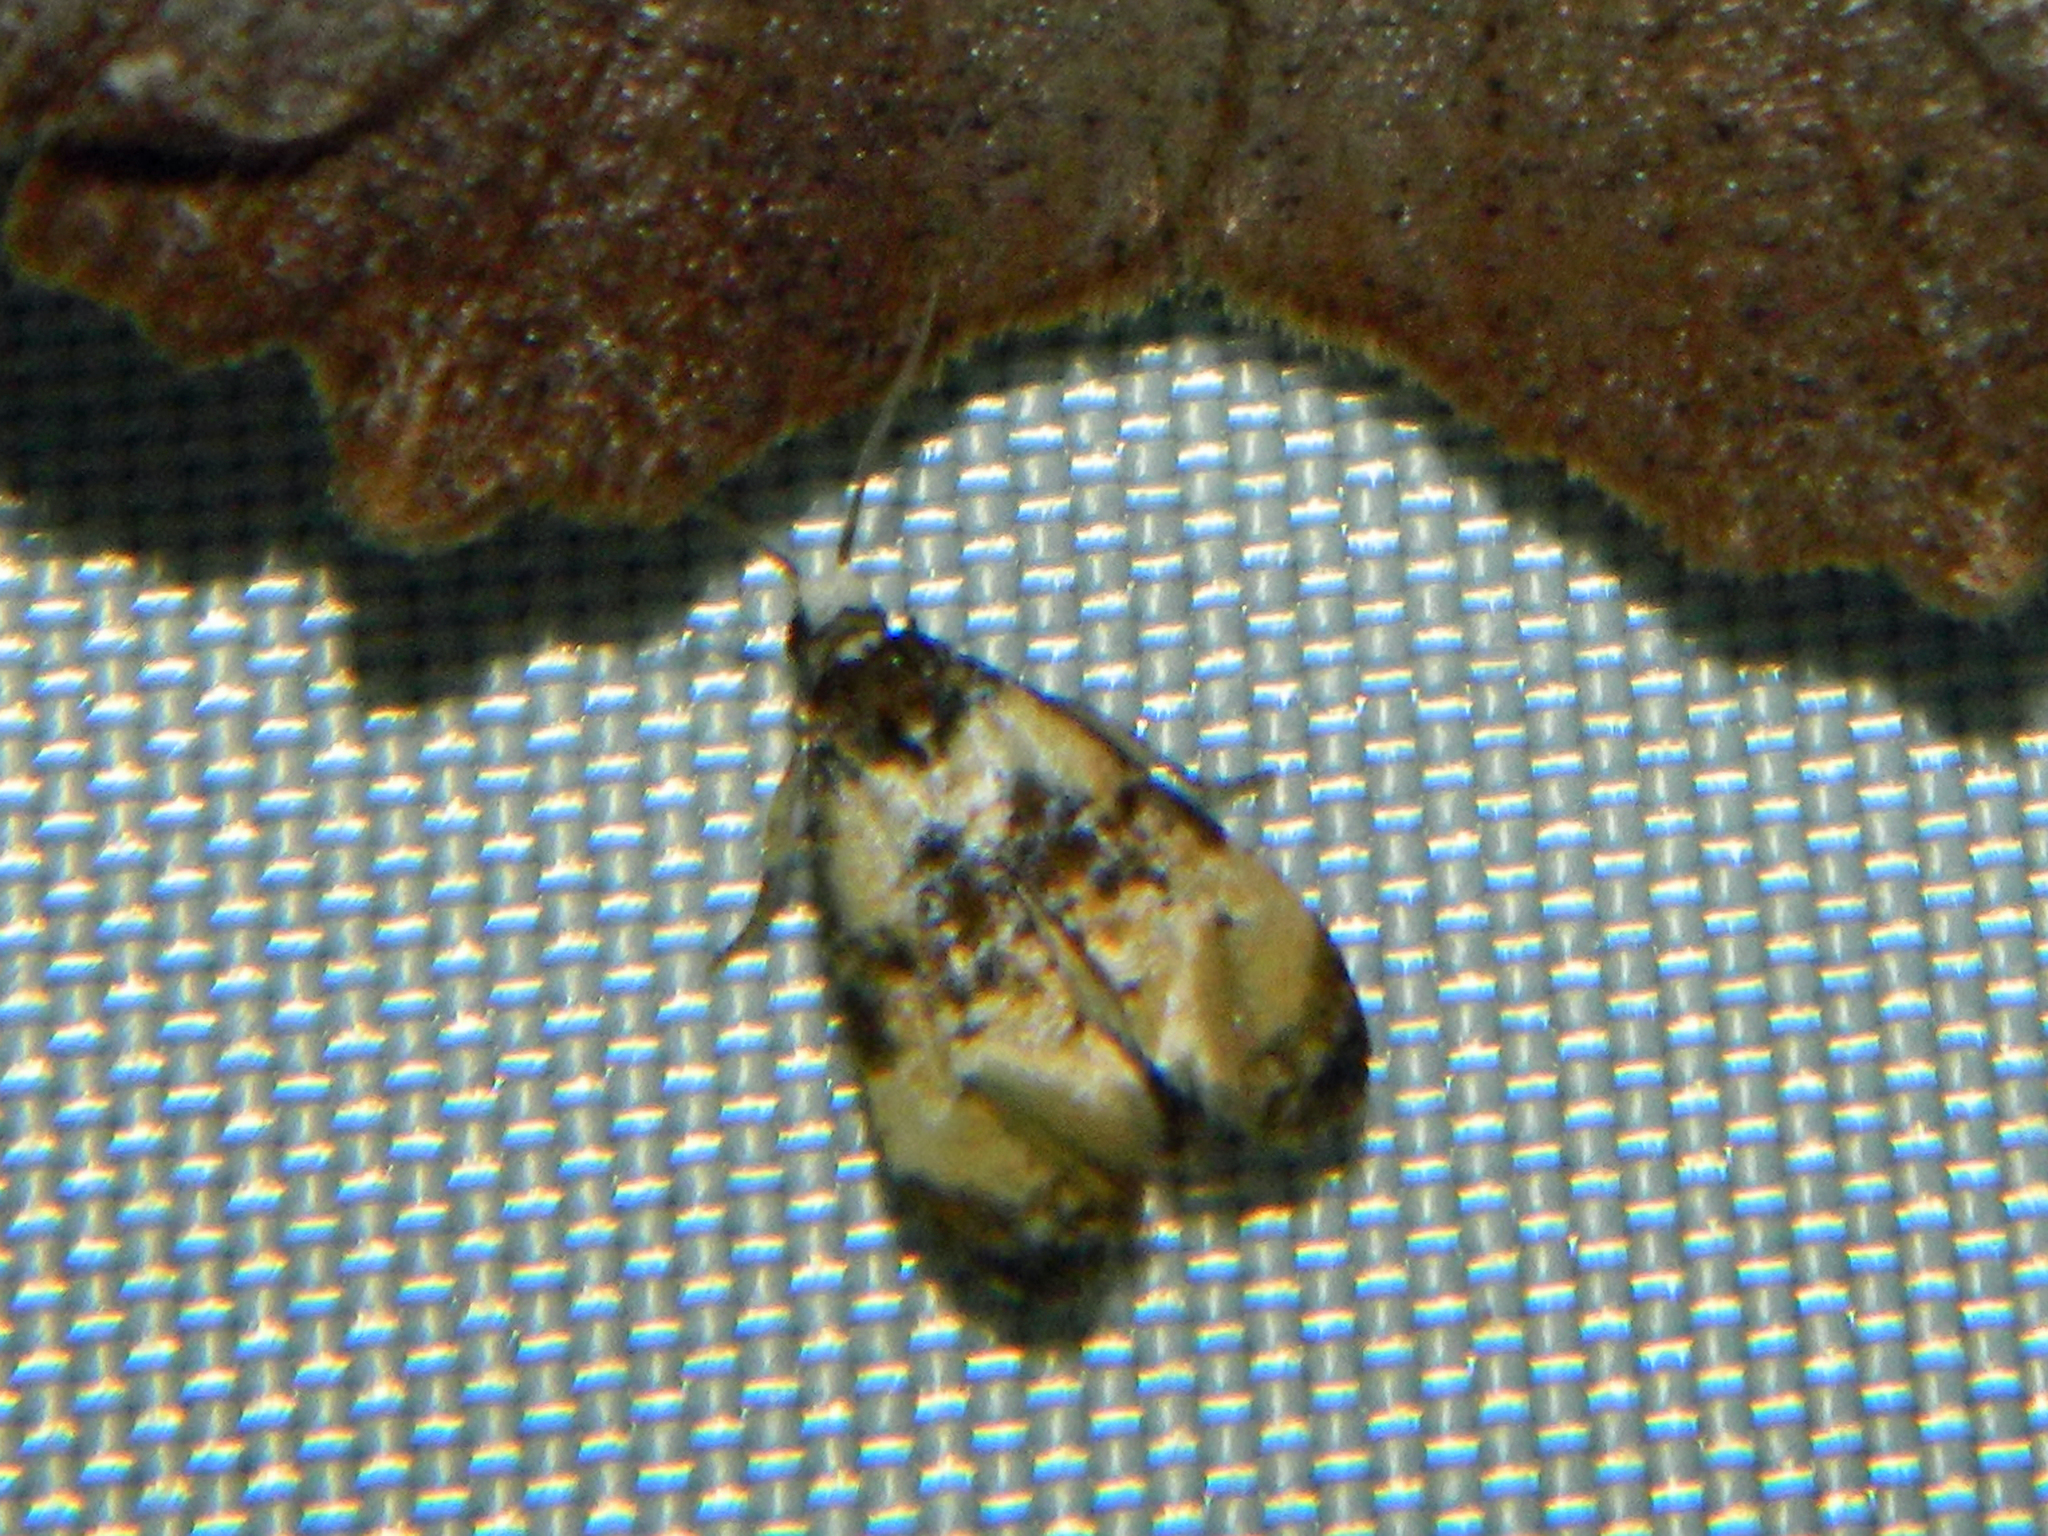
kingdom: Animalia
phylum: Arthropoda
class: Insecta
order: Lepidoptera
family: Tortricidae
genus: Phalonidia
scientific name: Phalonidia memoranda
